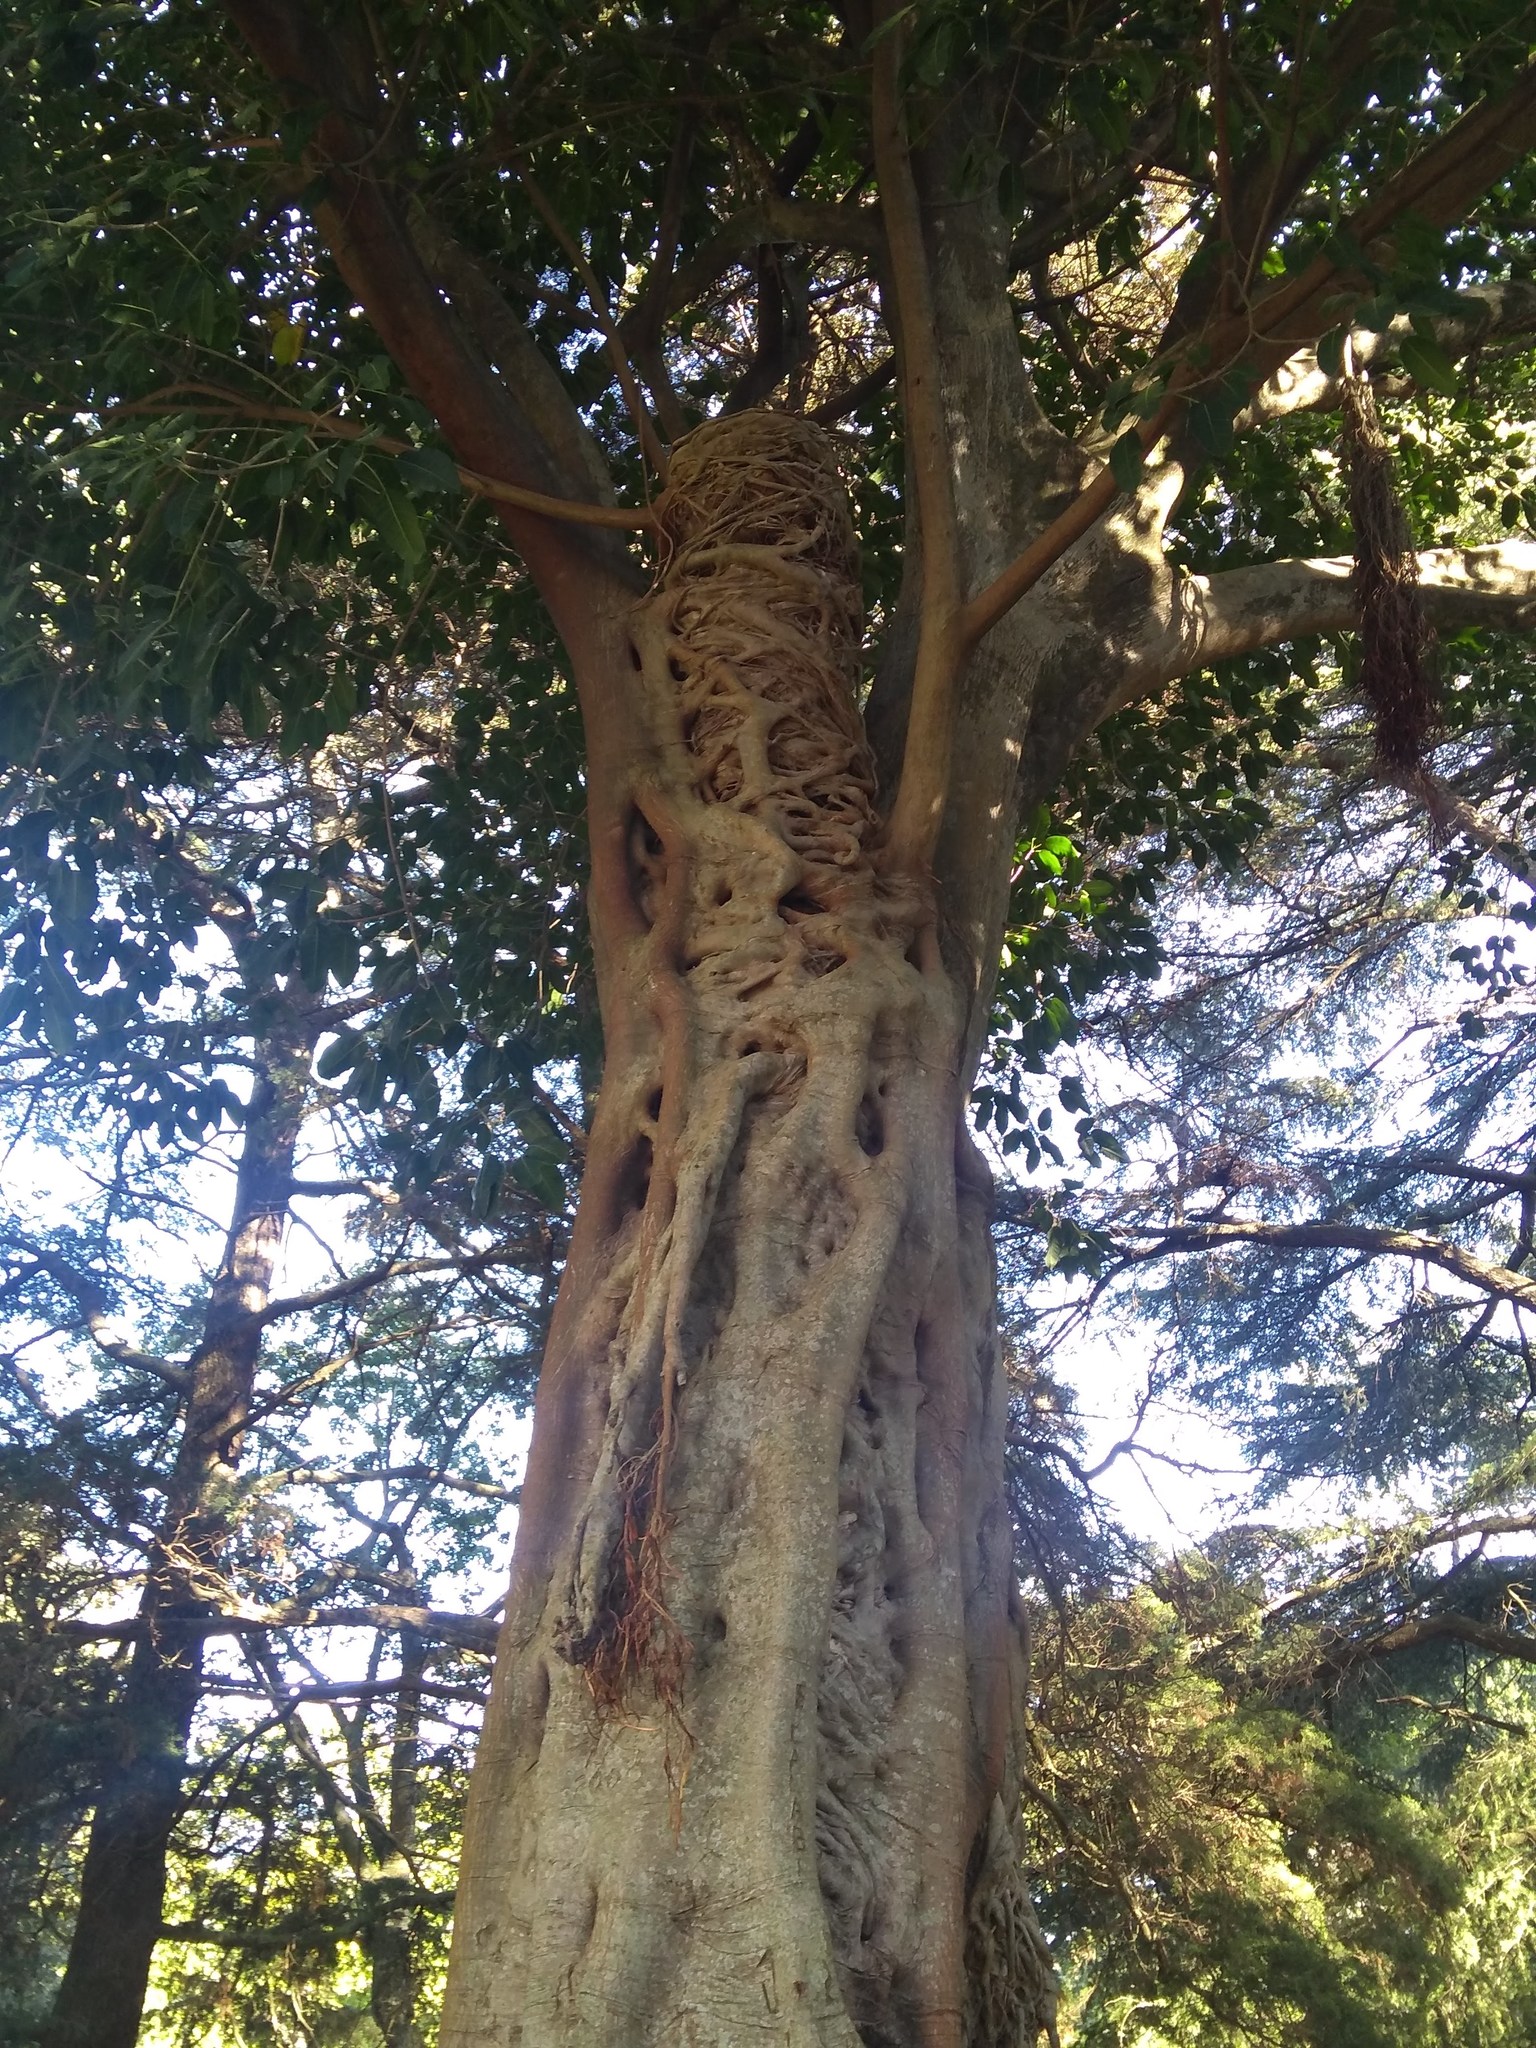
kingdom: Plantae
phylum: Tracheophyta
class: Magnoliopsida
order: Rosales
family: Moraceae
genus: Ficus
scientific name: Ficus luschnathiana
